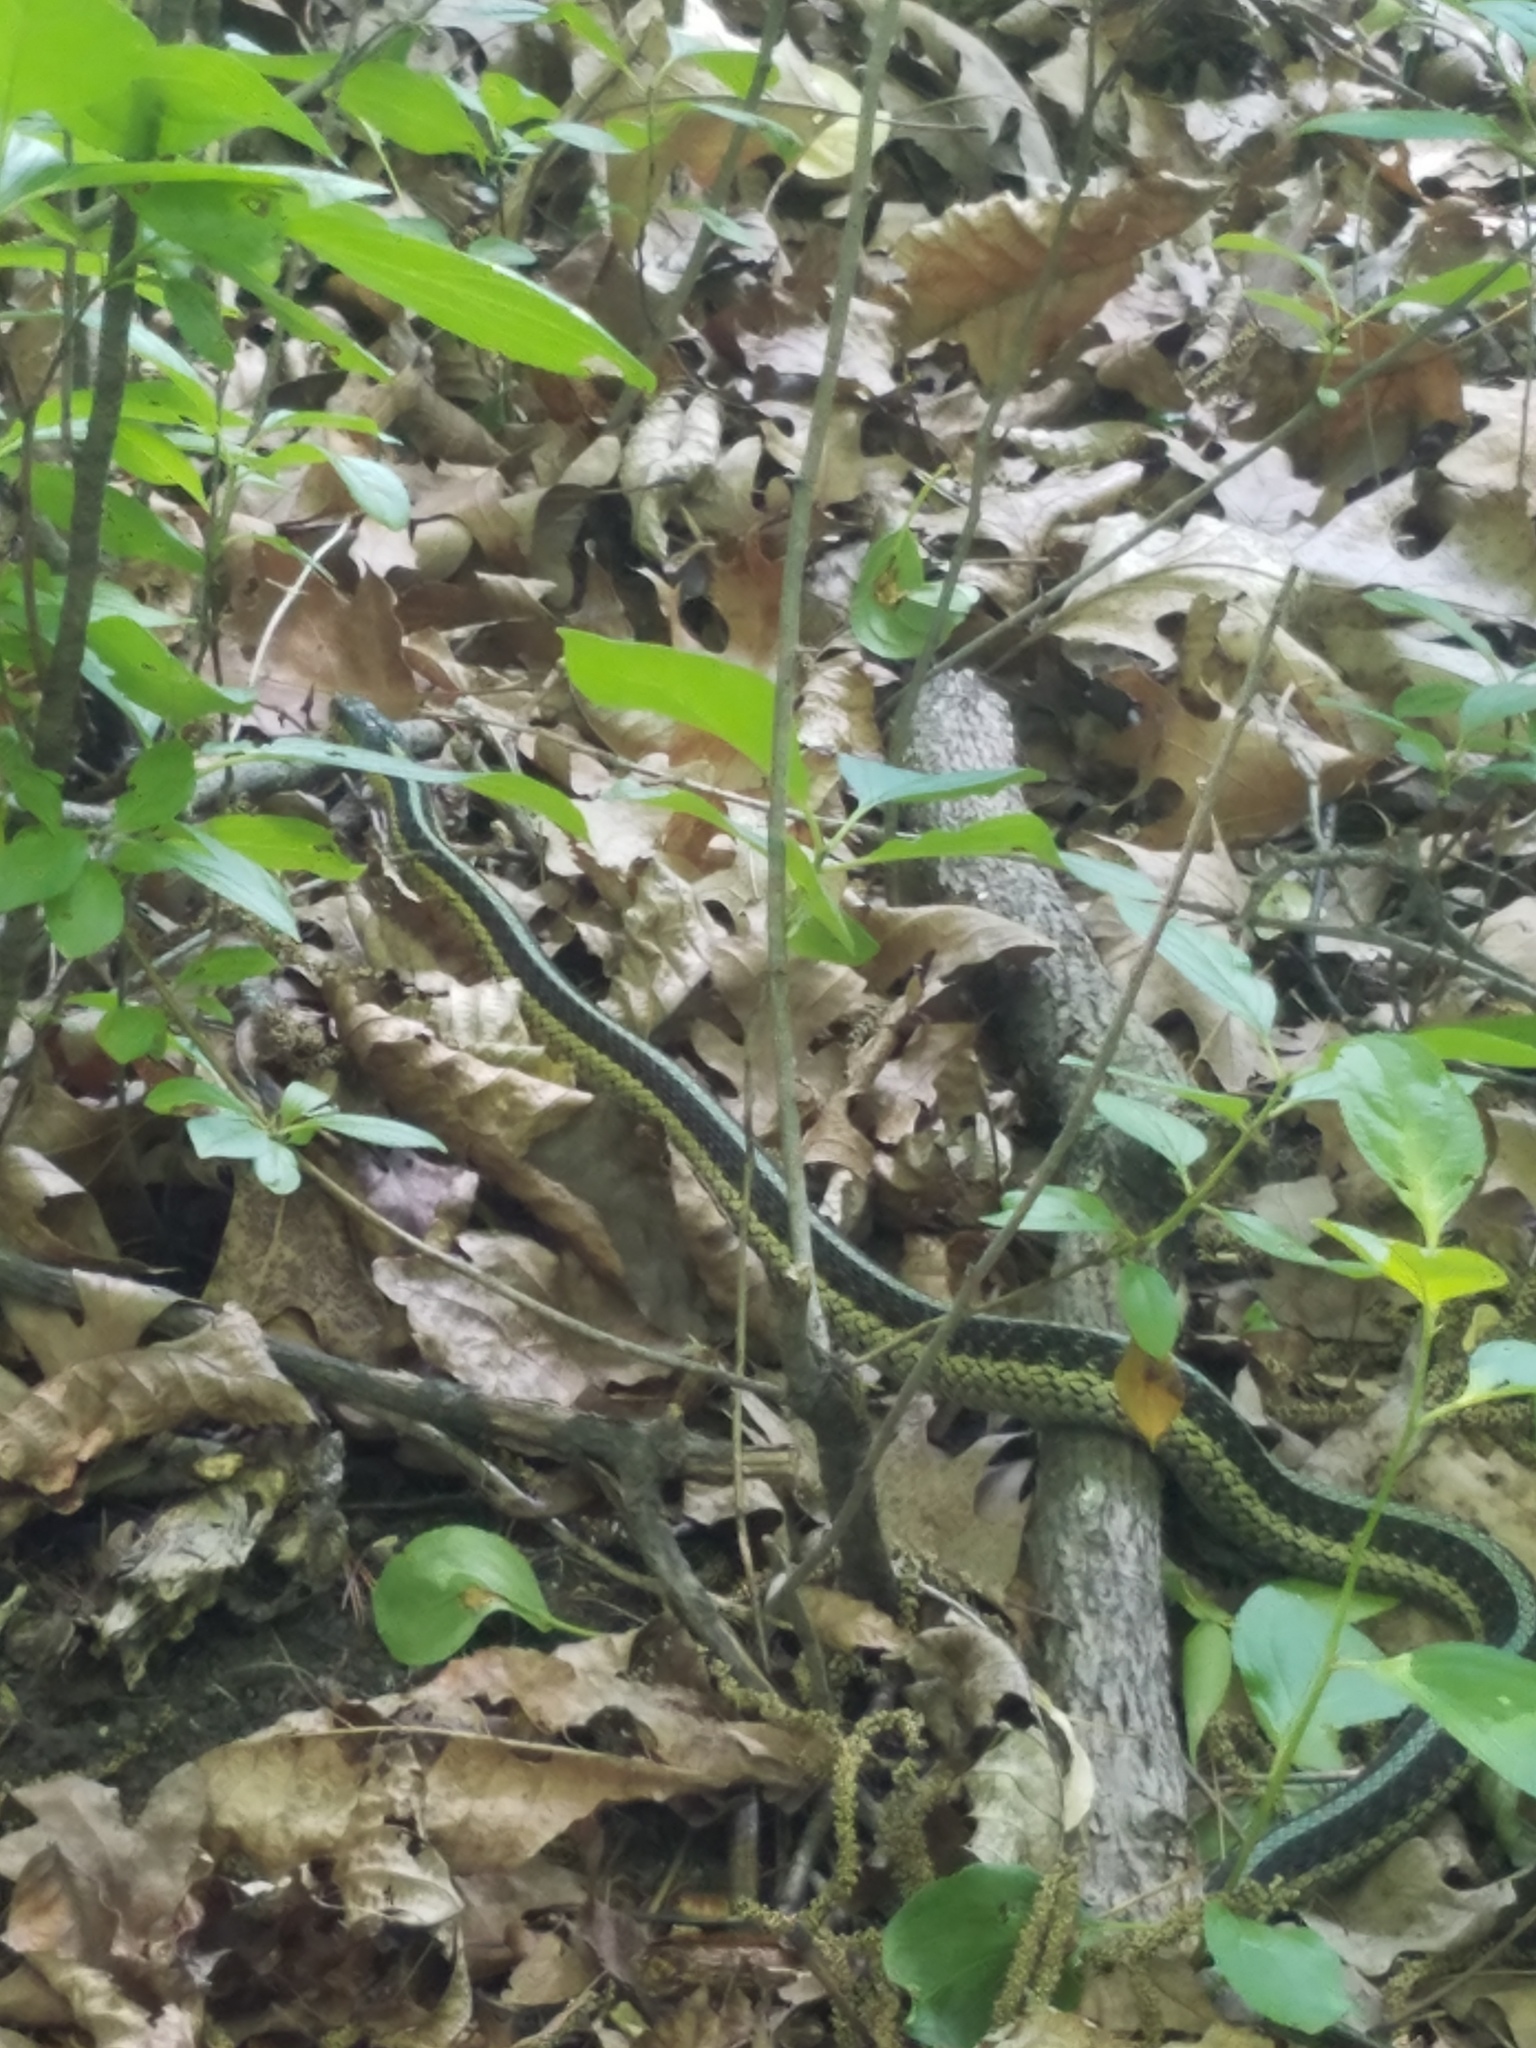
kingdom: Animalia
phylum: Chordata
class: Squamata
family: Colubridae
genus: Thamnophis
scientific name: Thamnophis sirtalis
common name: Common garter snake
